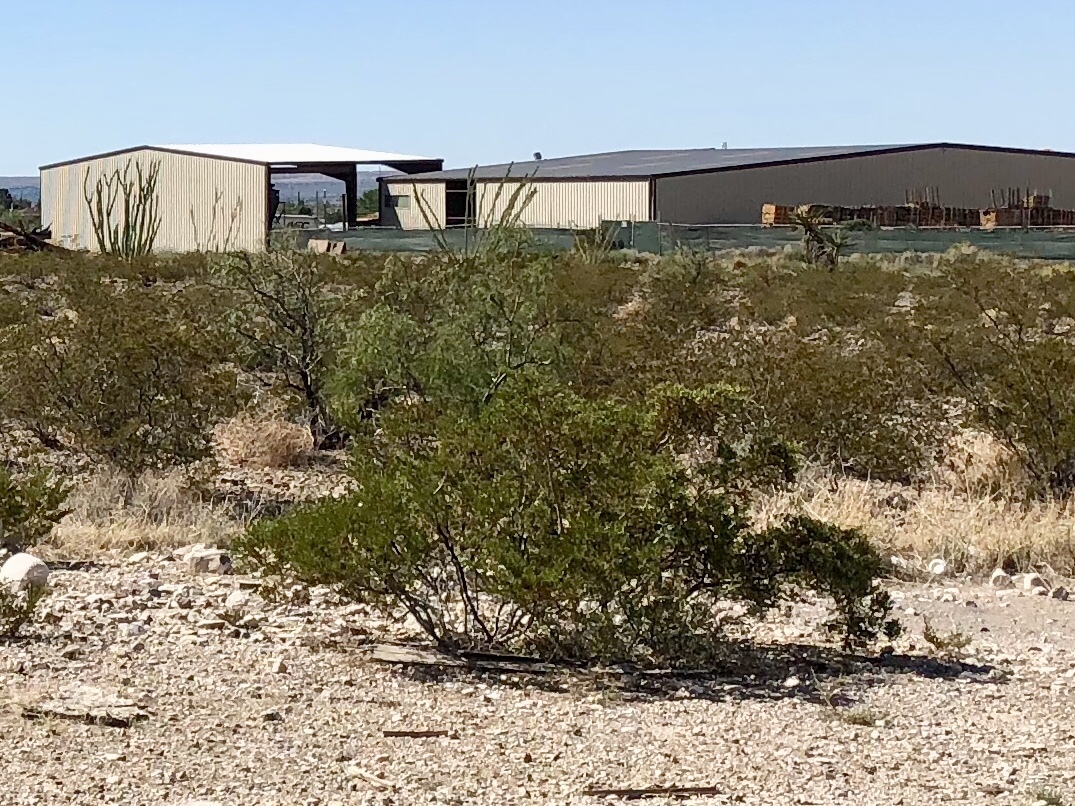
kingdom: Plantae
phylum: Tracheophyta
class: Magnoliopsida
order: Zygophyllales
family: Zygophyllaceae
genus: Larrea
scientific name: Larrea tridentata
